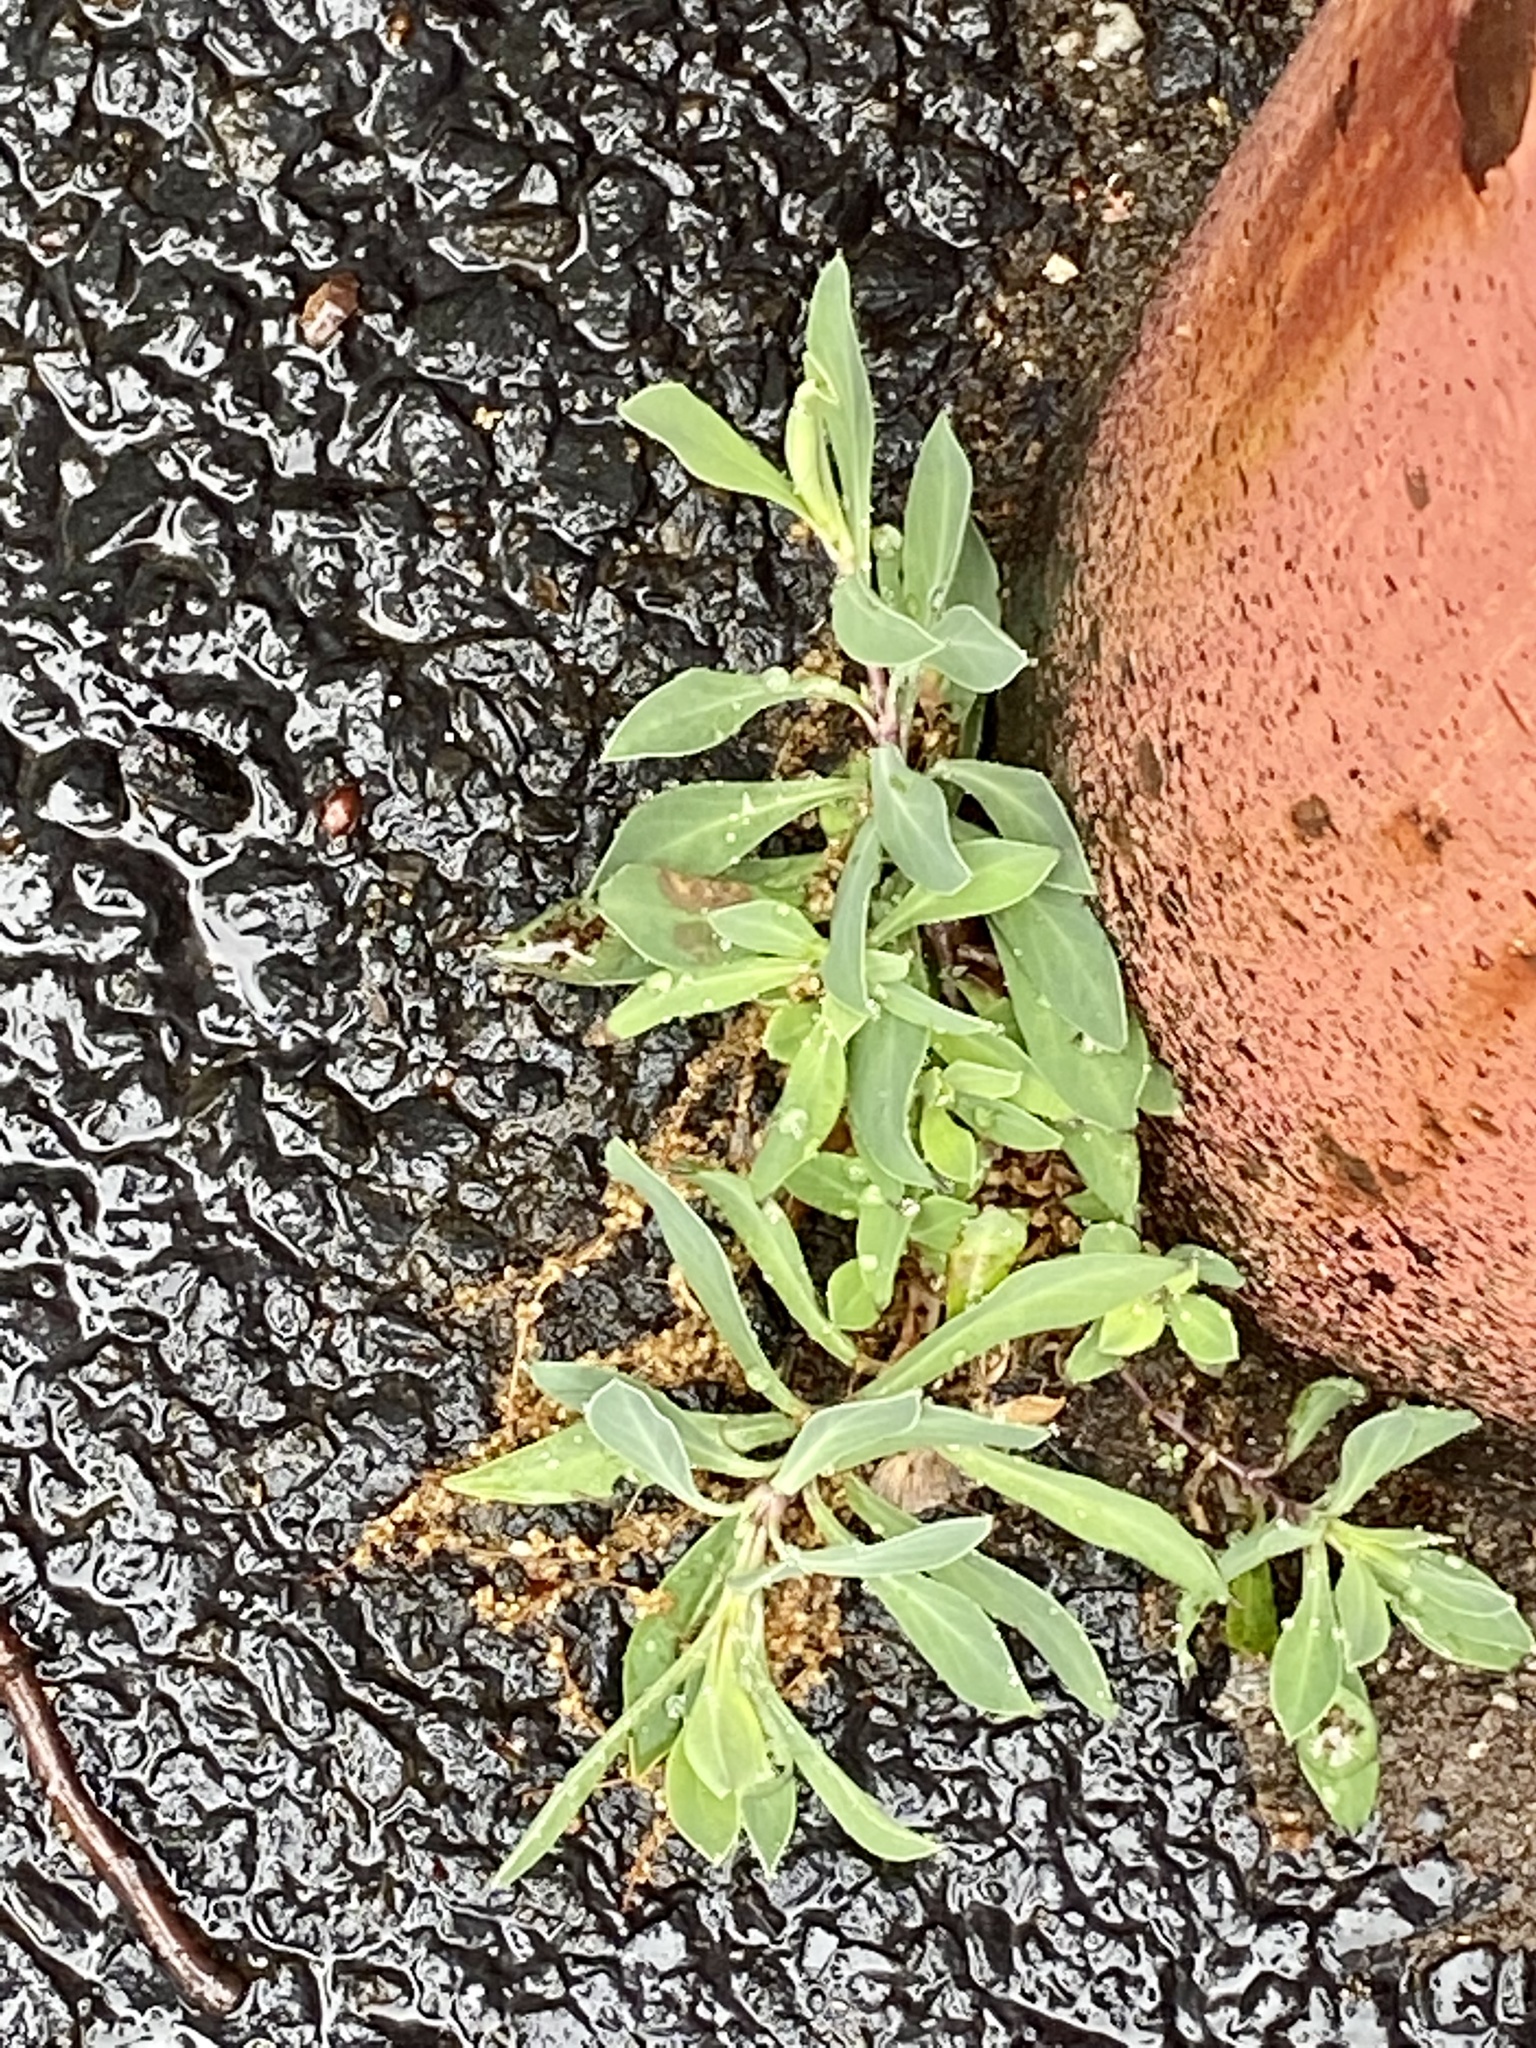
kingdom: Plantae
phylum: Tracheophyta
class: Magnoliopsida
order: Caryophyllales
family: Caryophyllaceae
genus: Silene
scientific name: Silene vulgaris
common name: Bladder campion
